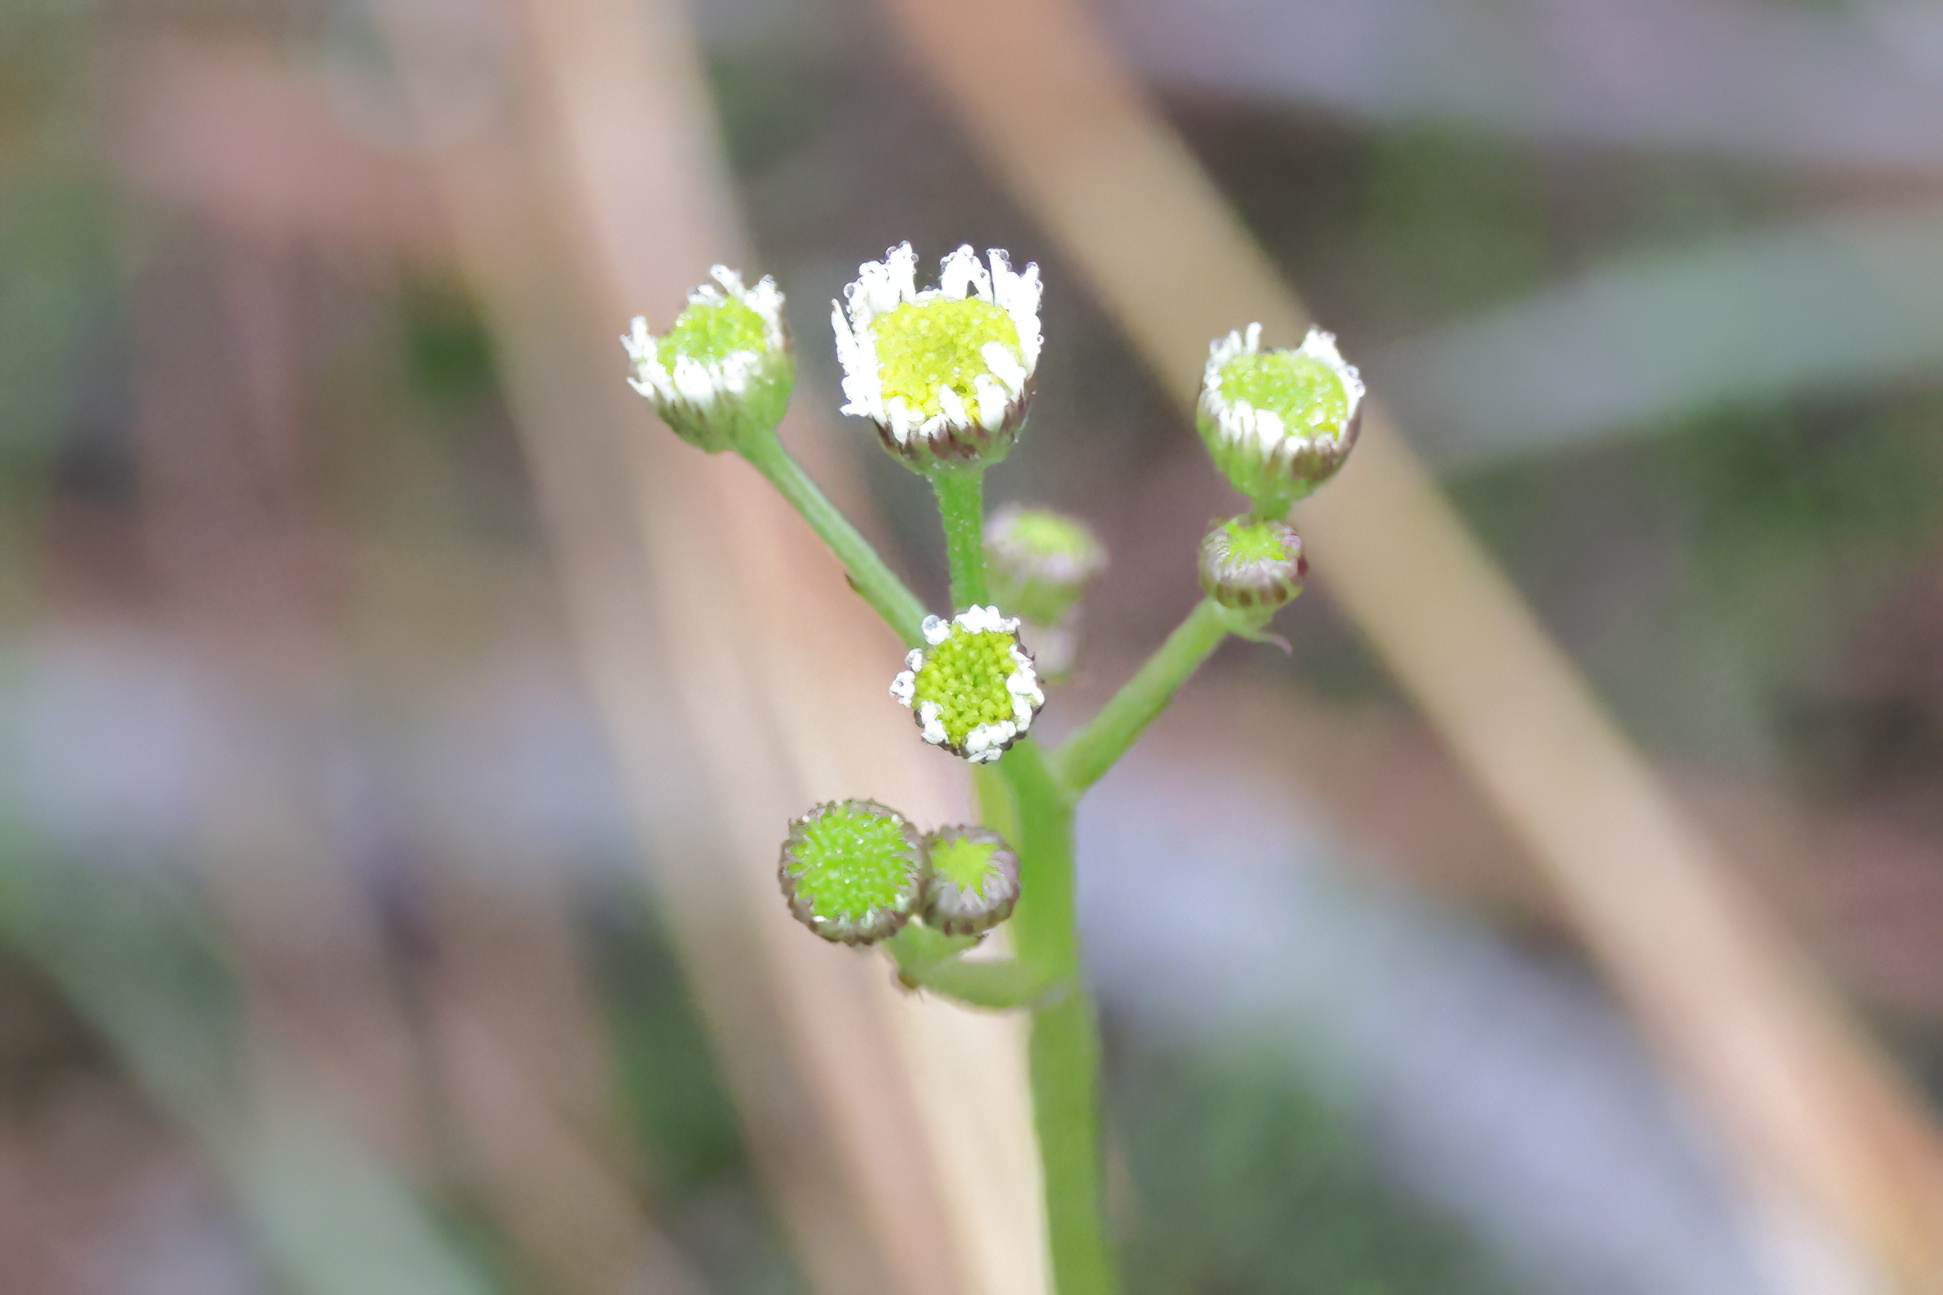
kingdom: Plantae
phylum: Tracheophyta
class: Magnoliopsida
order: Asterales
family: Asteraceae
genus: Erigeron
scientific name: Erigeron vernus
